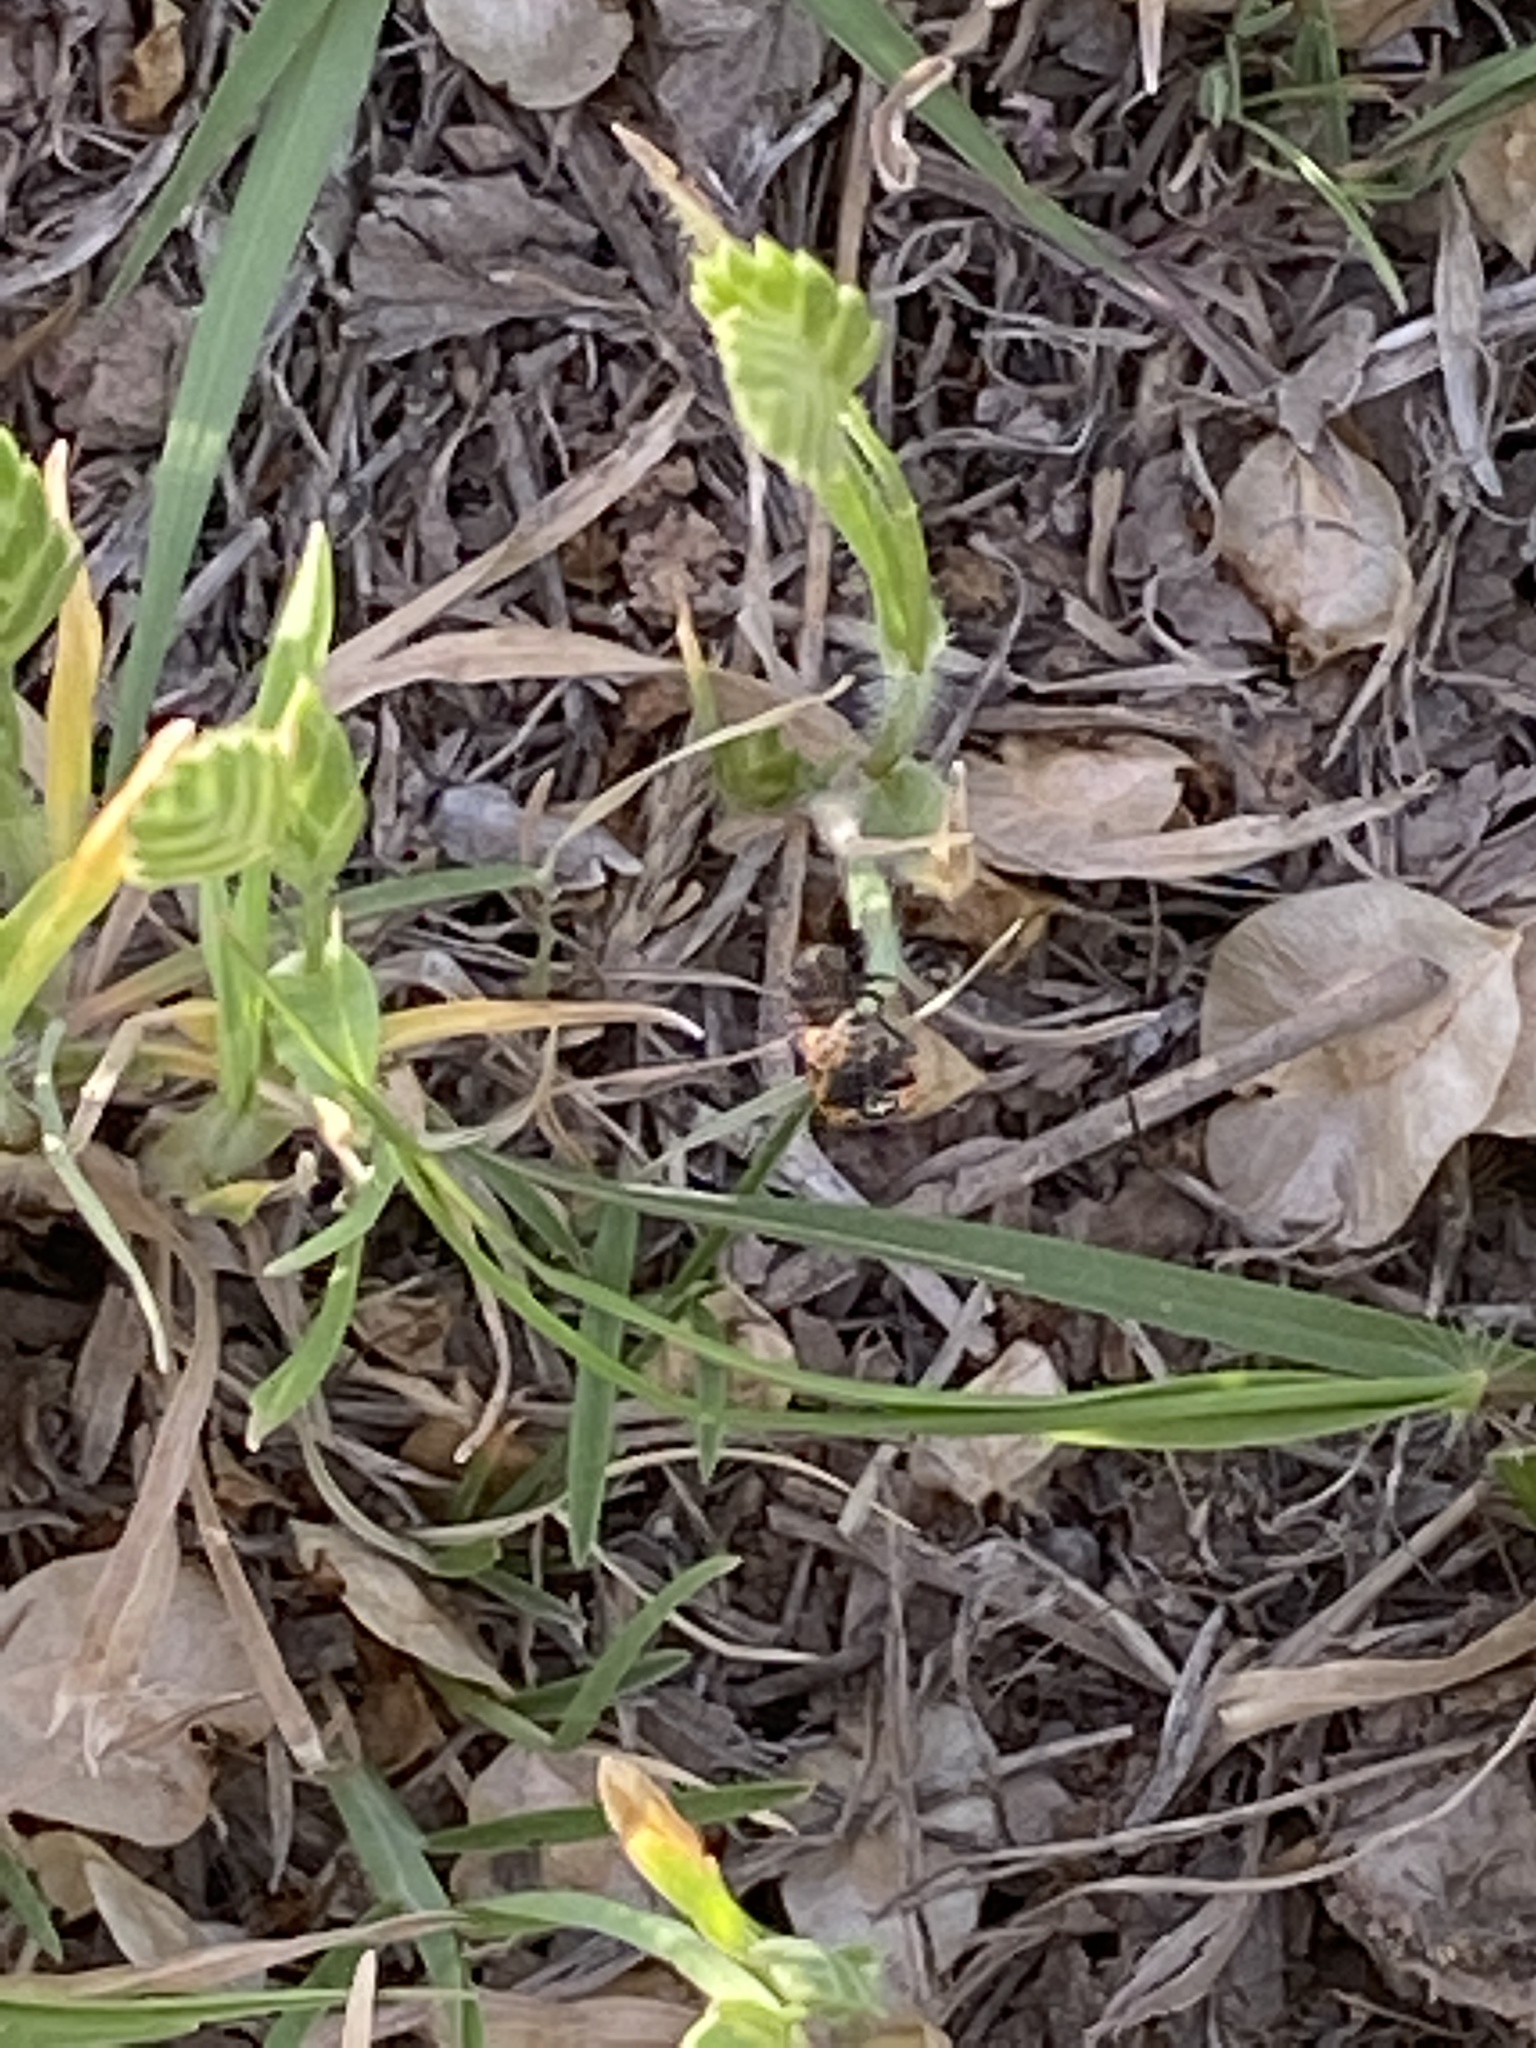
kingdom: Animalia
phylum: Arthropoda
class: Insecta
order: Coleoptera
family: Coccinellidae
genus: Hippodamia
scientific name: Hippodamia convergens
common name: Convergent lady beetle
